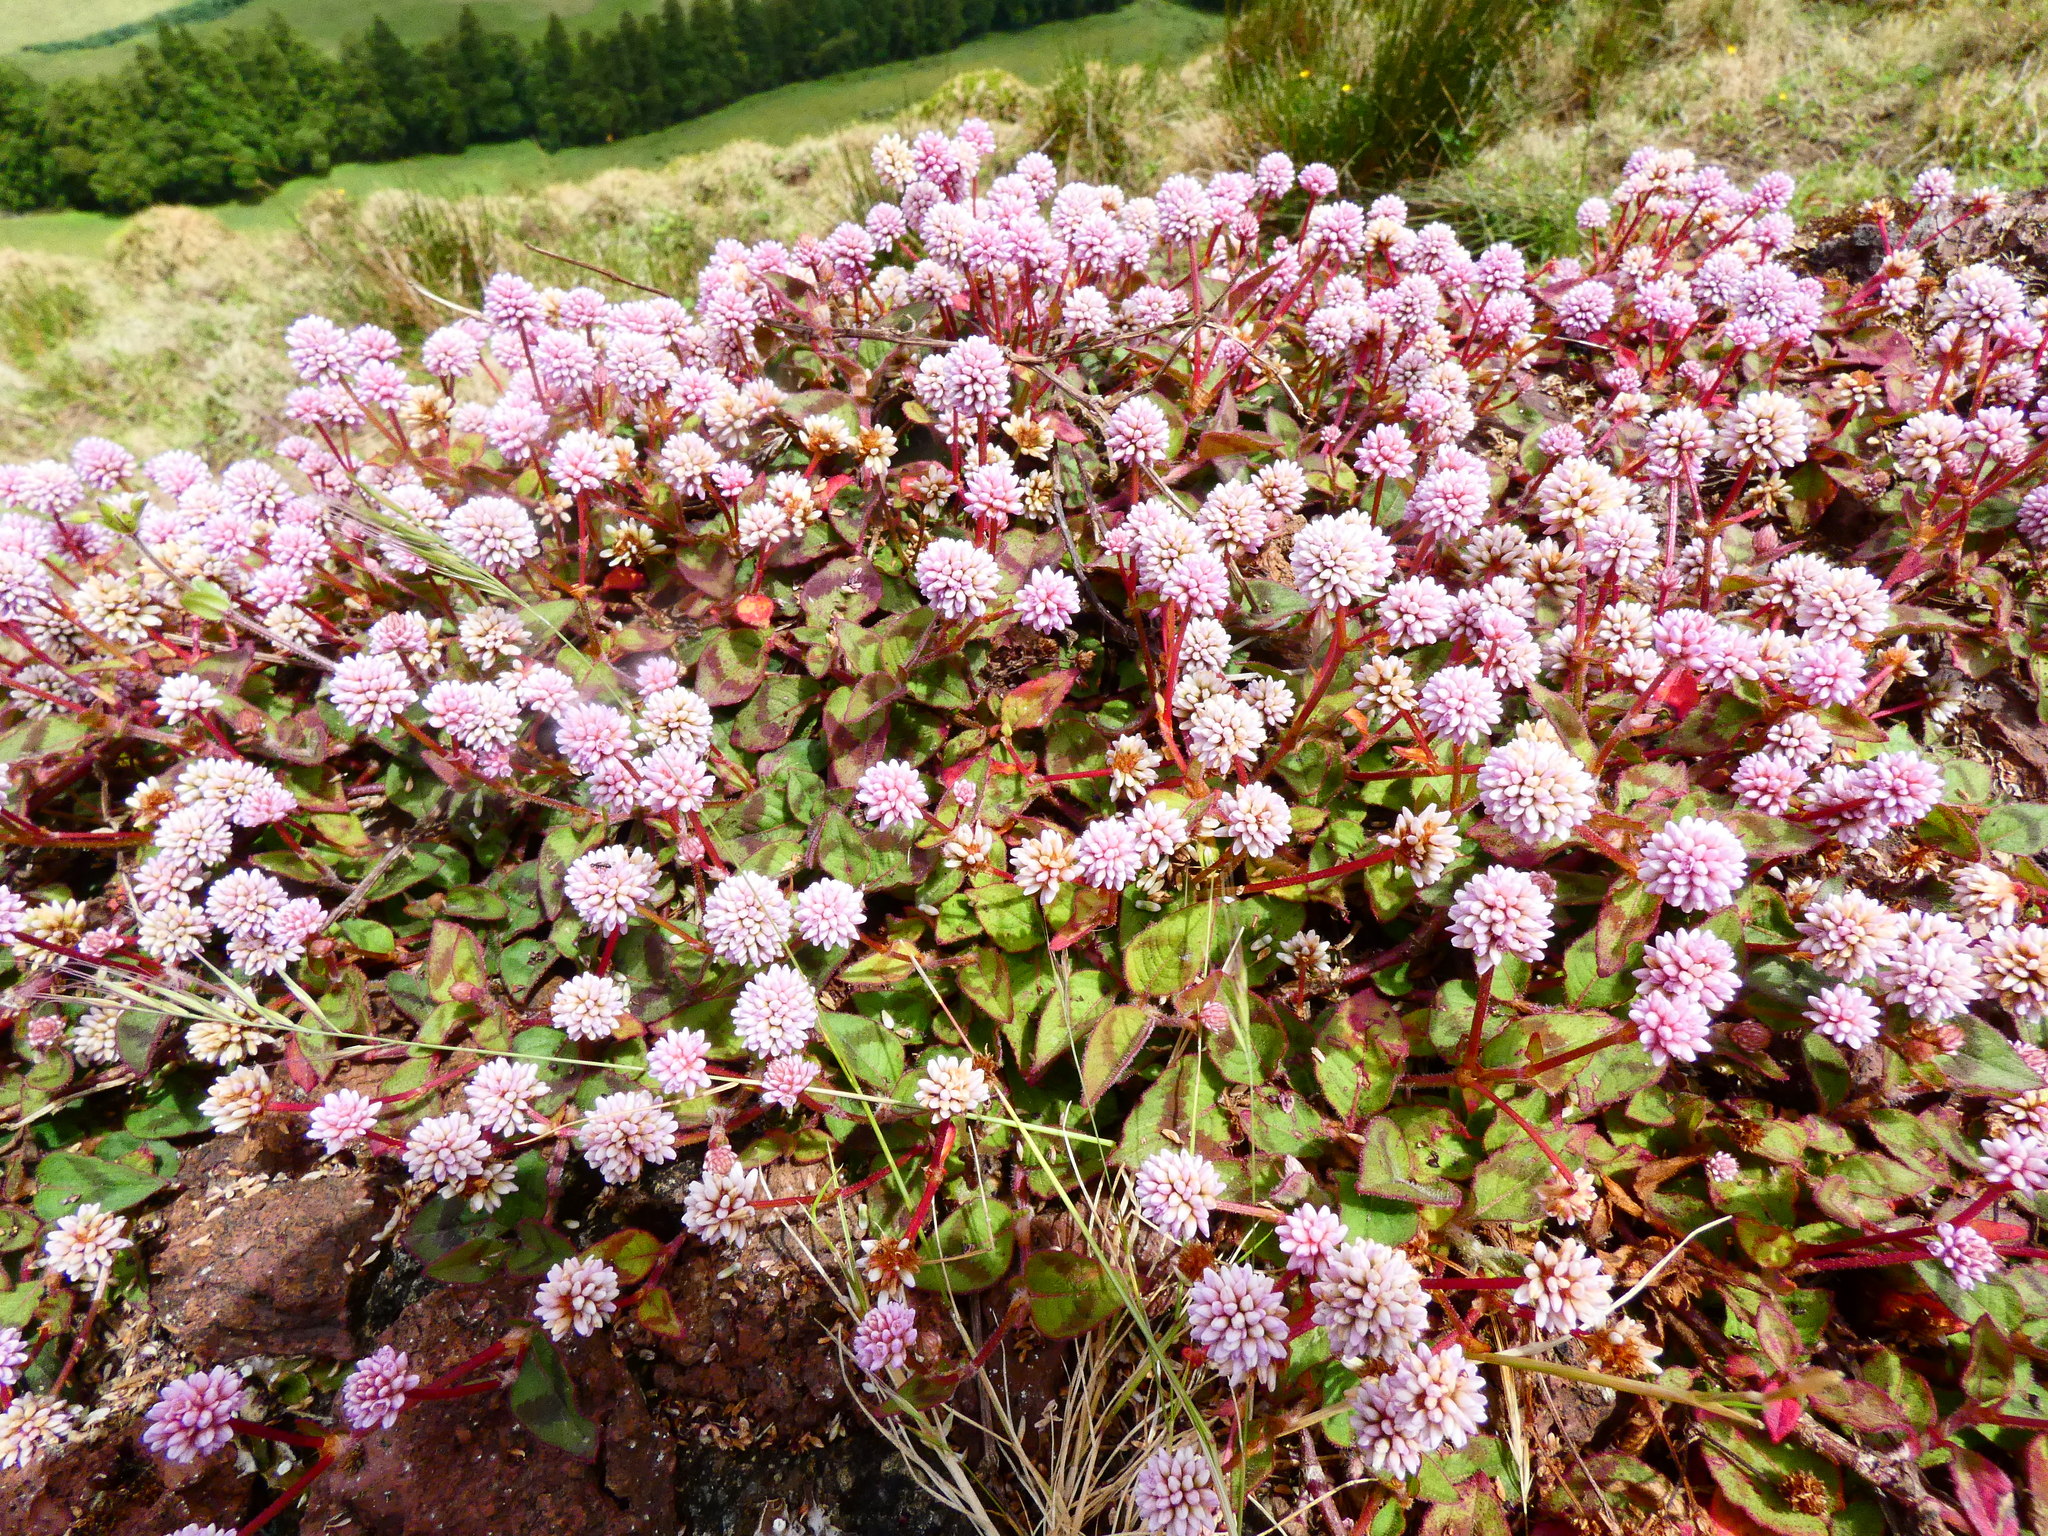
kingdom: Plantae
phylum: Tracheophyta
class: Magnoliopsida
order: Caryophyllales
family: Polygonaceae
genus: Persicaria
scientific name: Persicaria capitata
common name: Pinkhead smartweed
